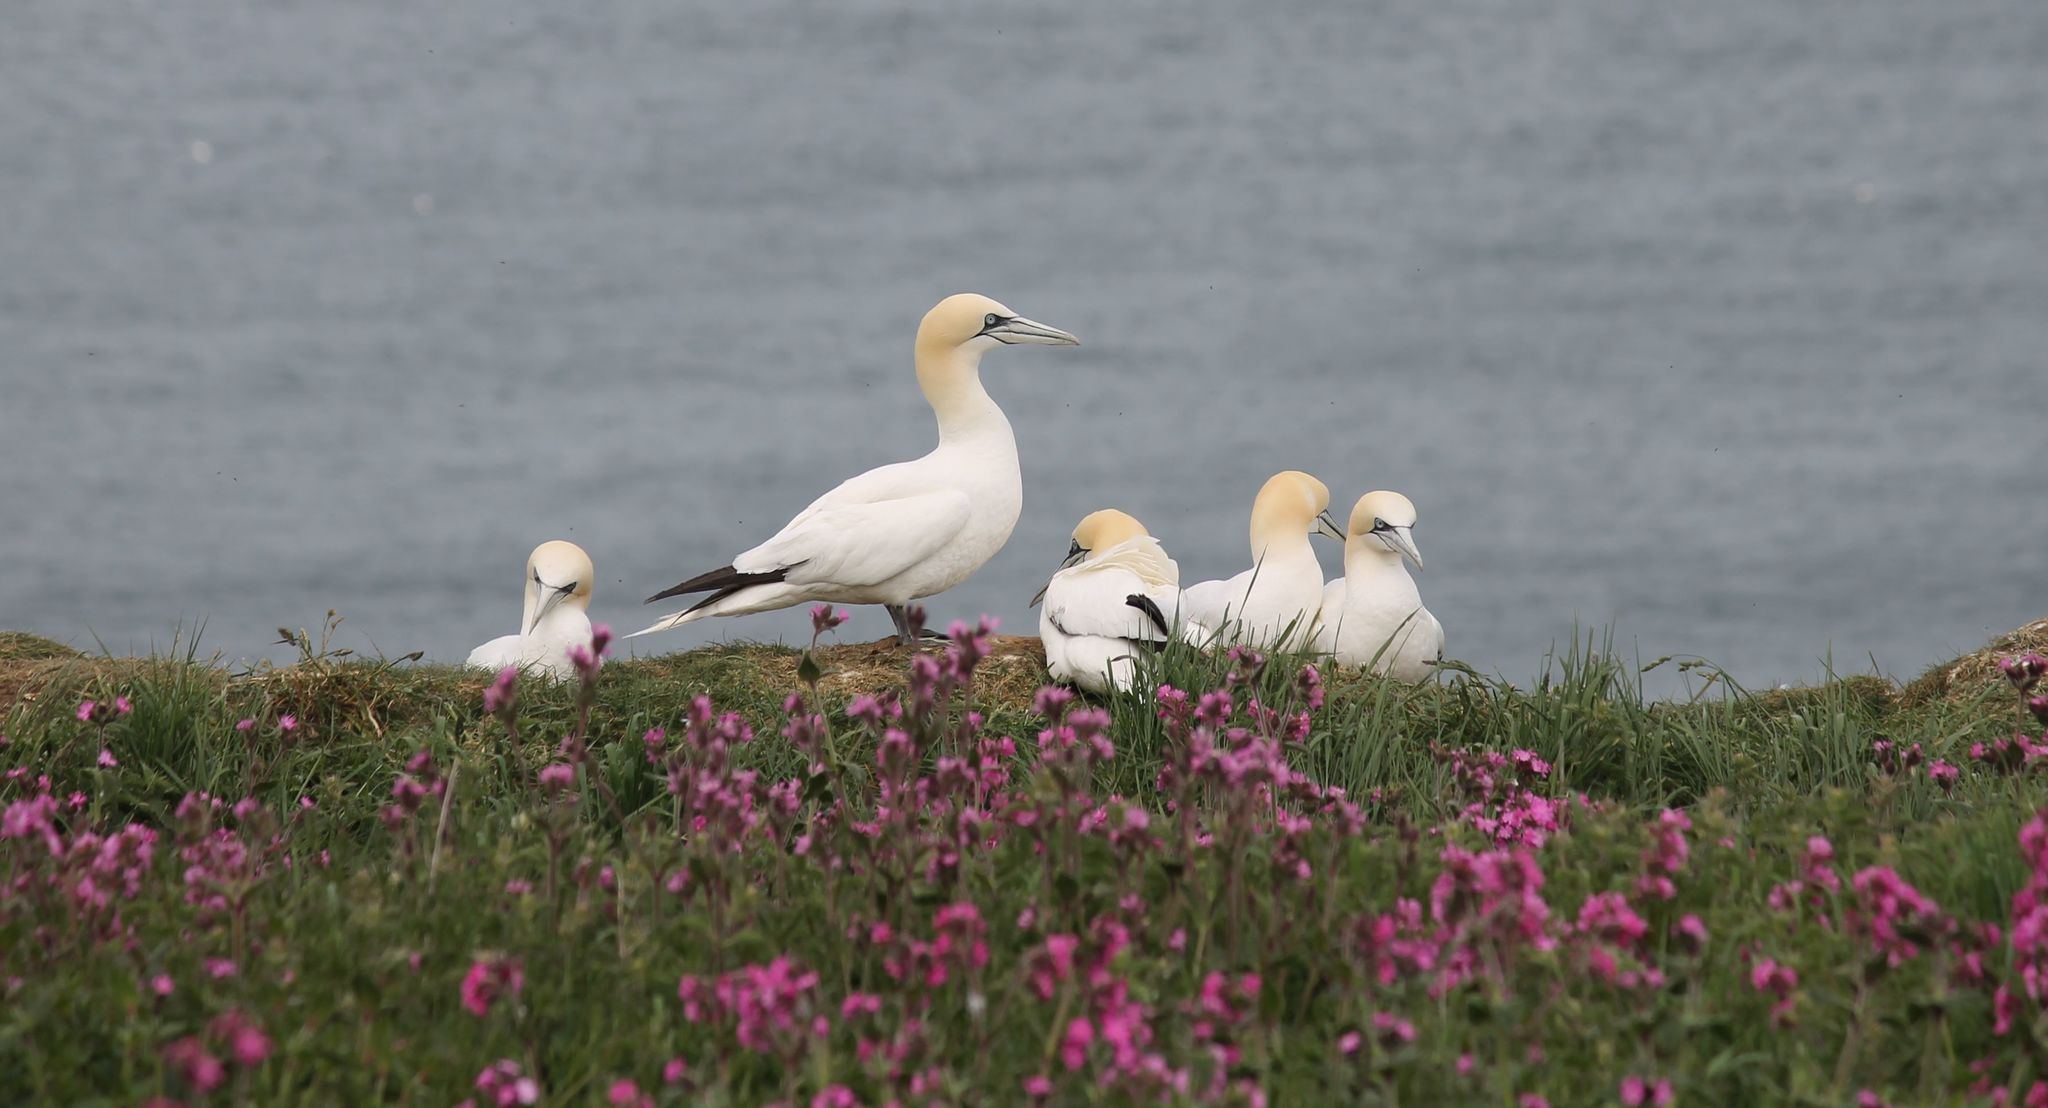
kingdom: Animalia
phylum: Chordata
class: Aves
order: Suliformes
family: Sulidae
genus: Morus
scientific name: Morus bassanus
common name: Northern gannet
